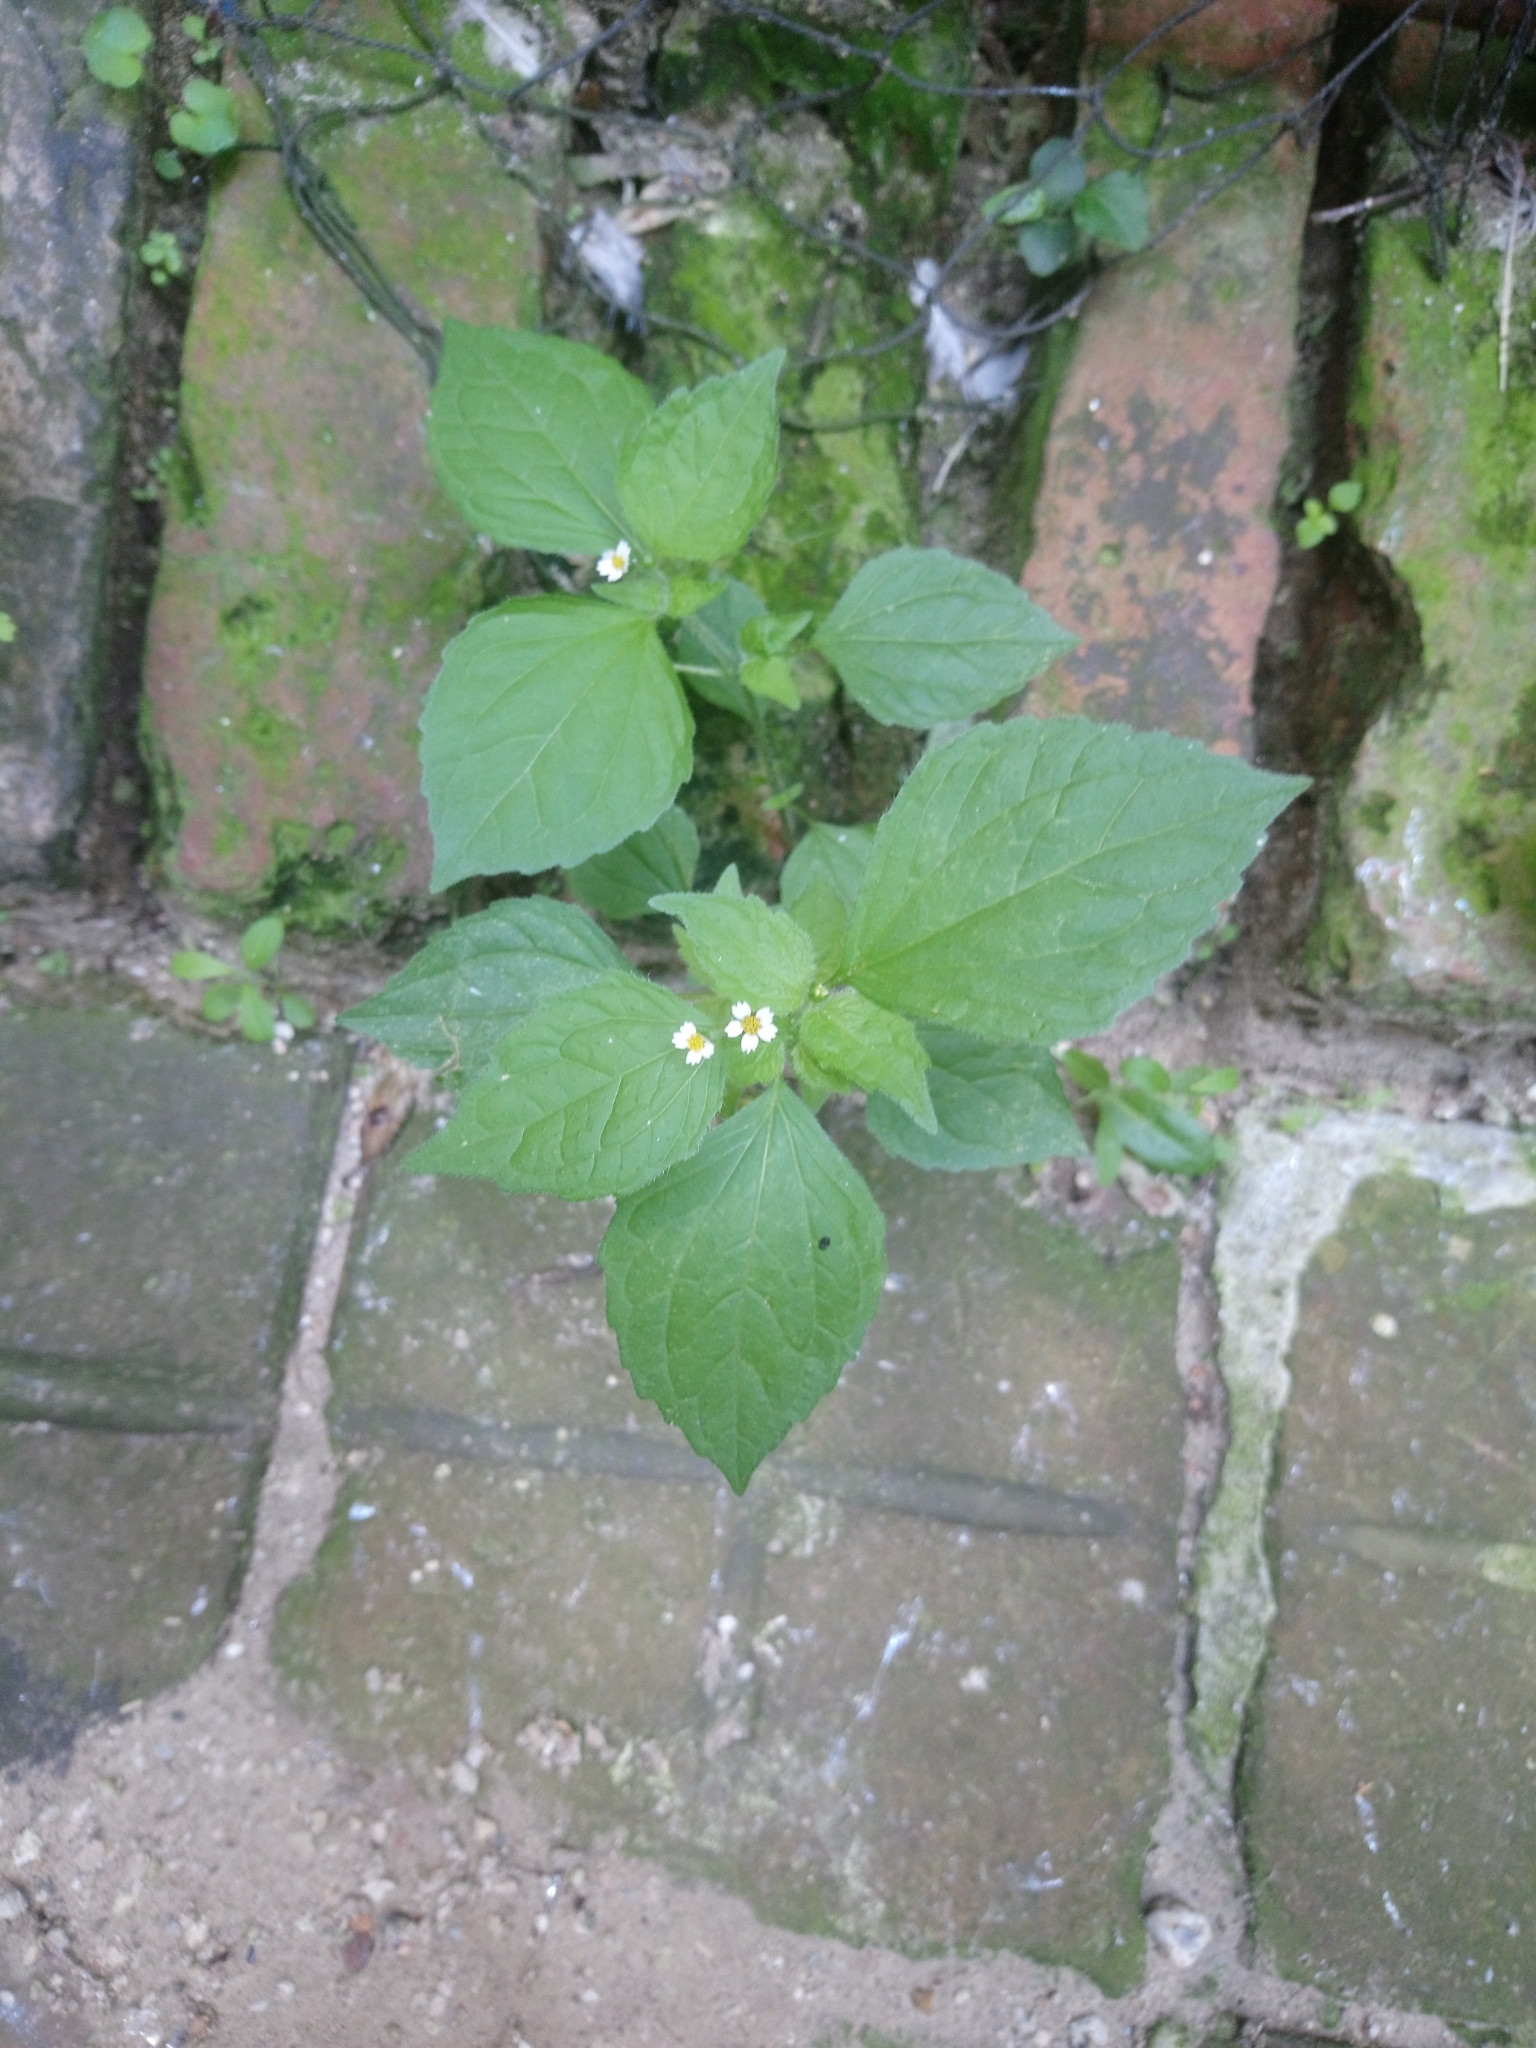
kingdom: Plantae
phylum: Tracheophyta
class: Magnoliopsida
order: Asterales
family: Asteraceae
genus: Galinsoga
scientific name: Galinsoga quadriradiata
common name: Shaggy soldier
